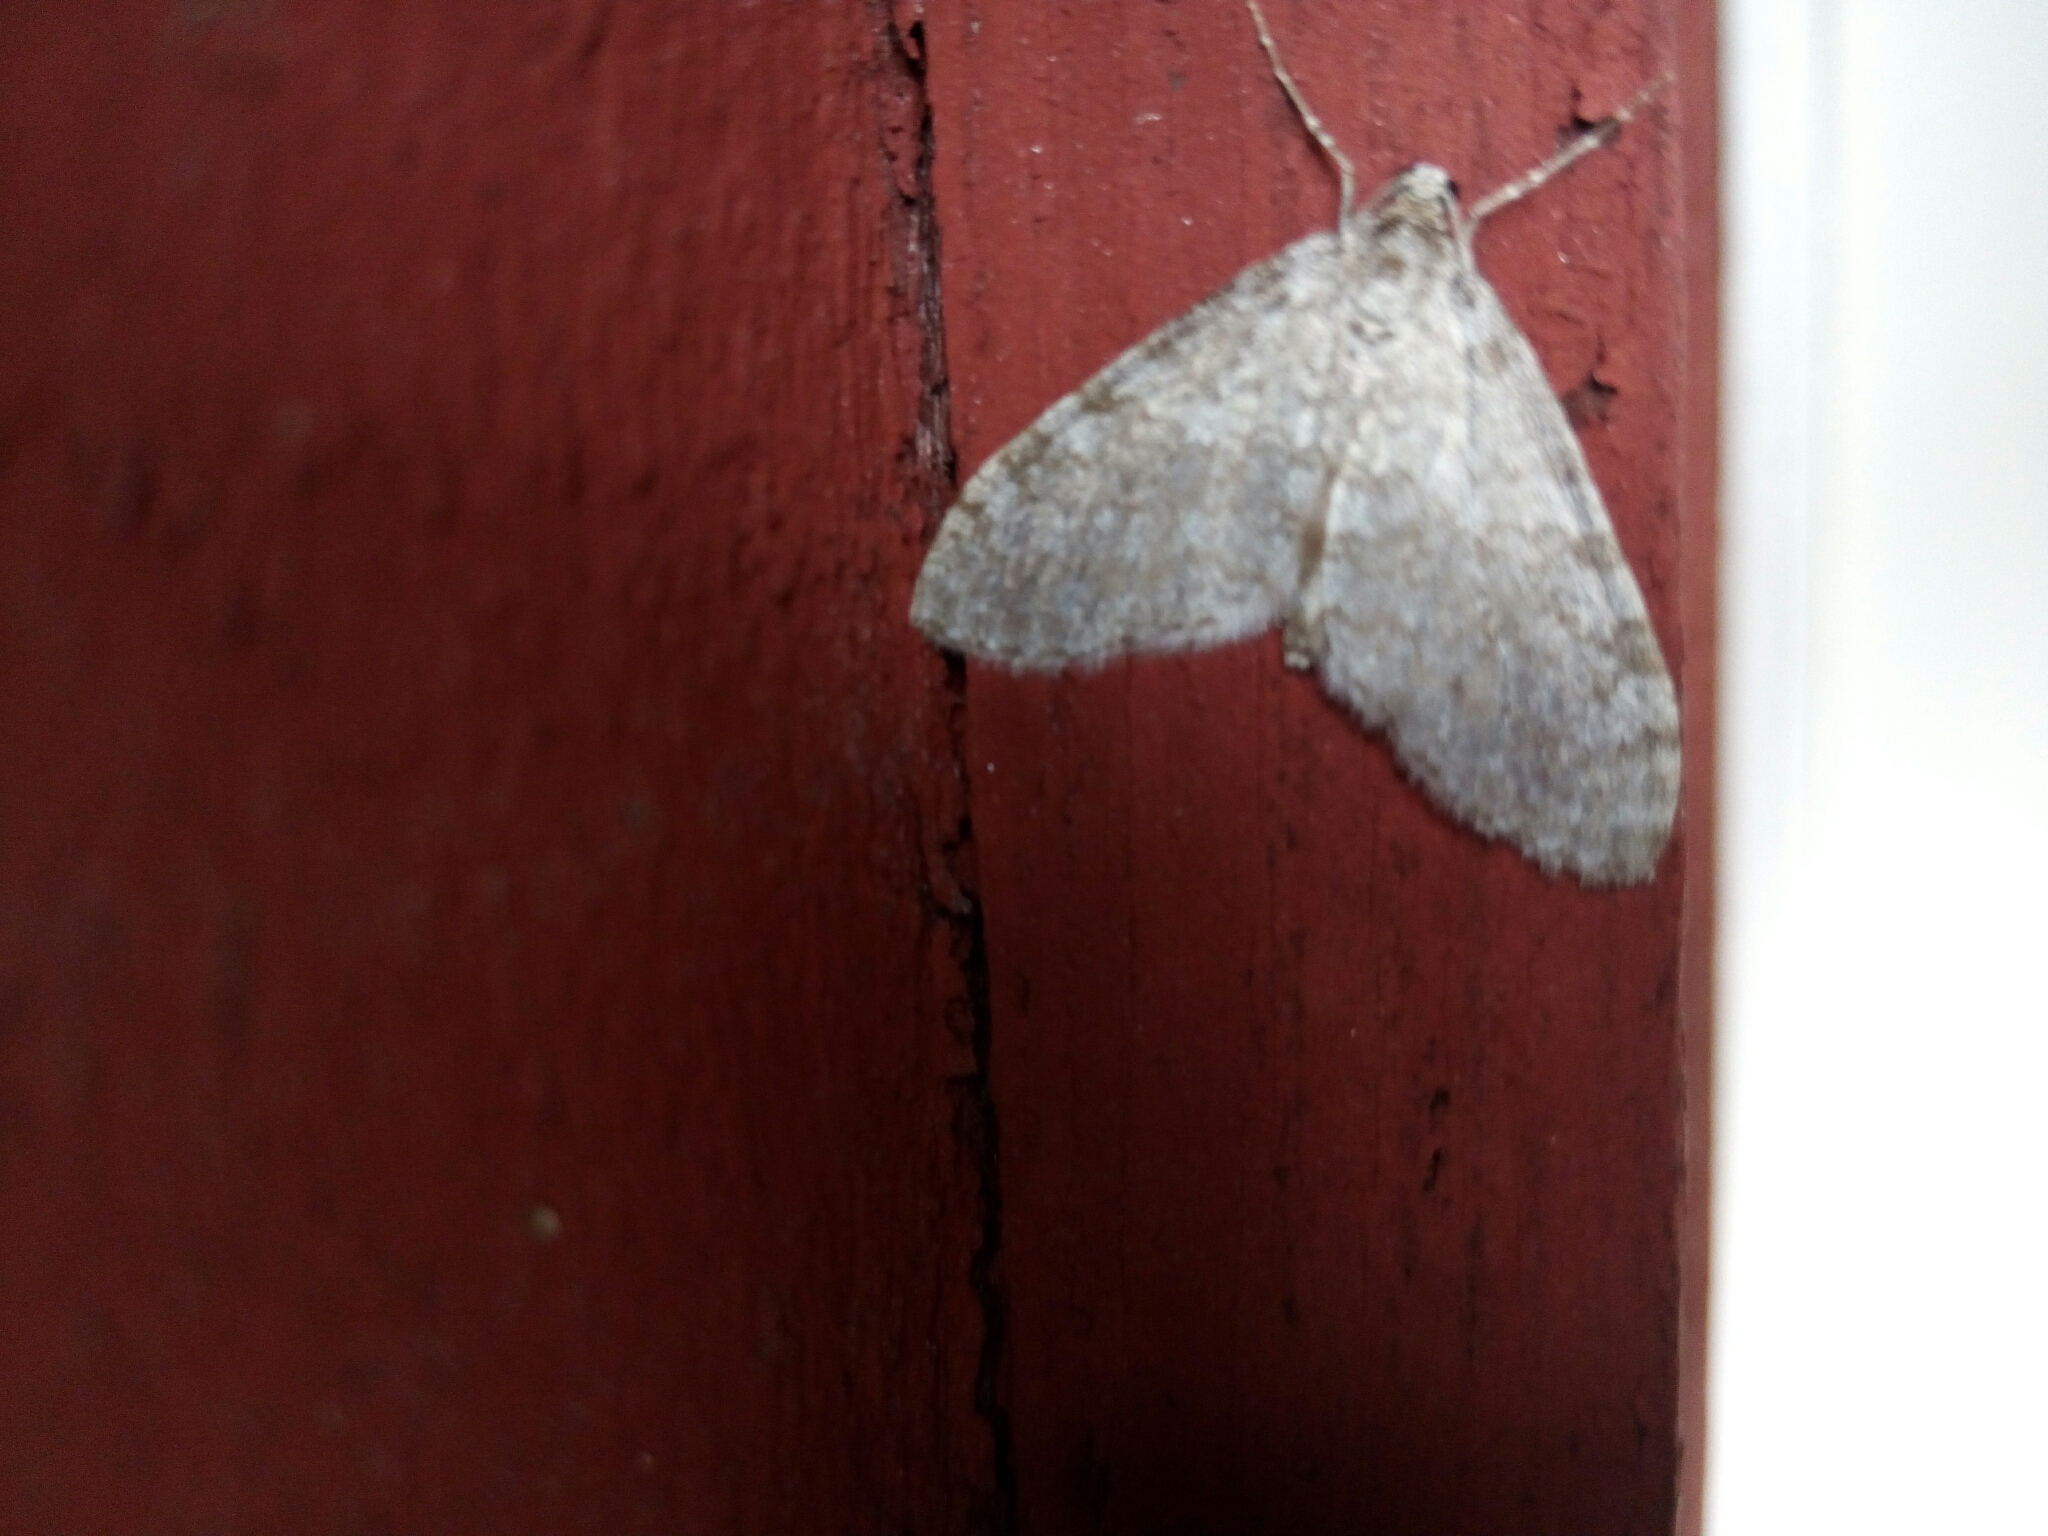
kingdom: Animalia
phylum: Arthropoda
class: Insecta
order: Lepidoptera
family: Geometridae
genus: Trichopteryx
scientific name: Trichopteryx carpinata
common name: Early tooth-striped
